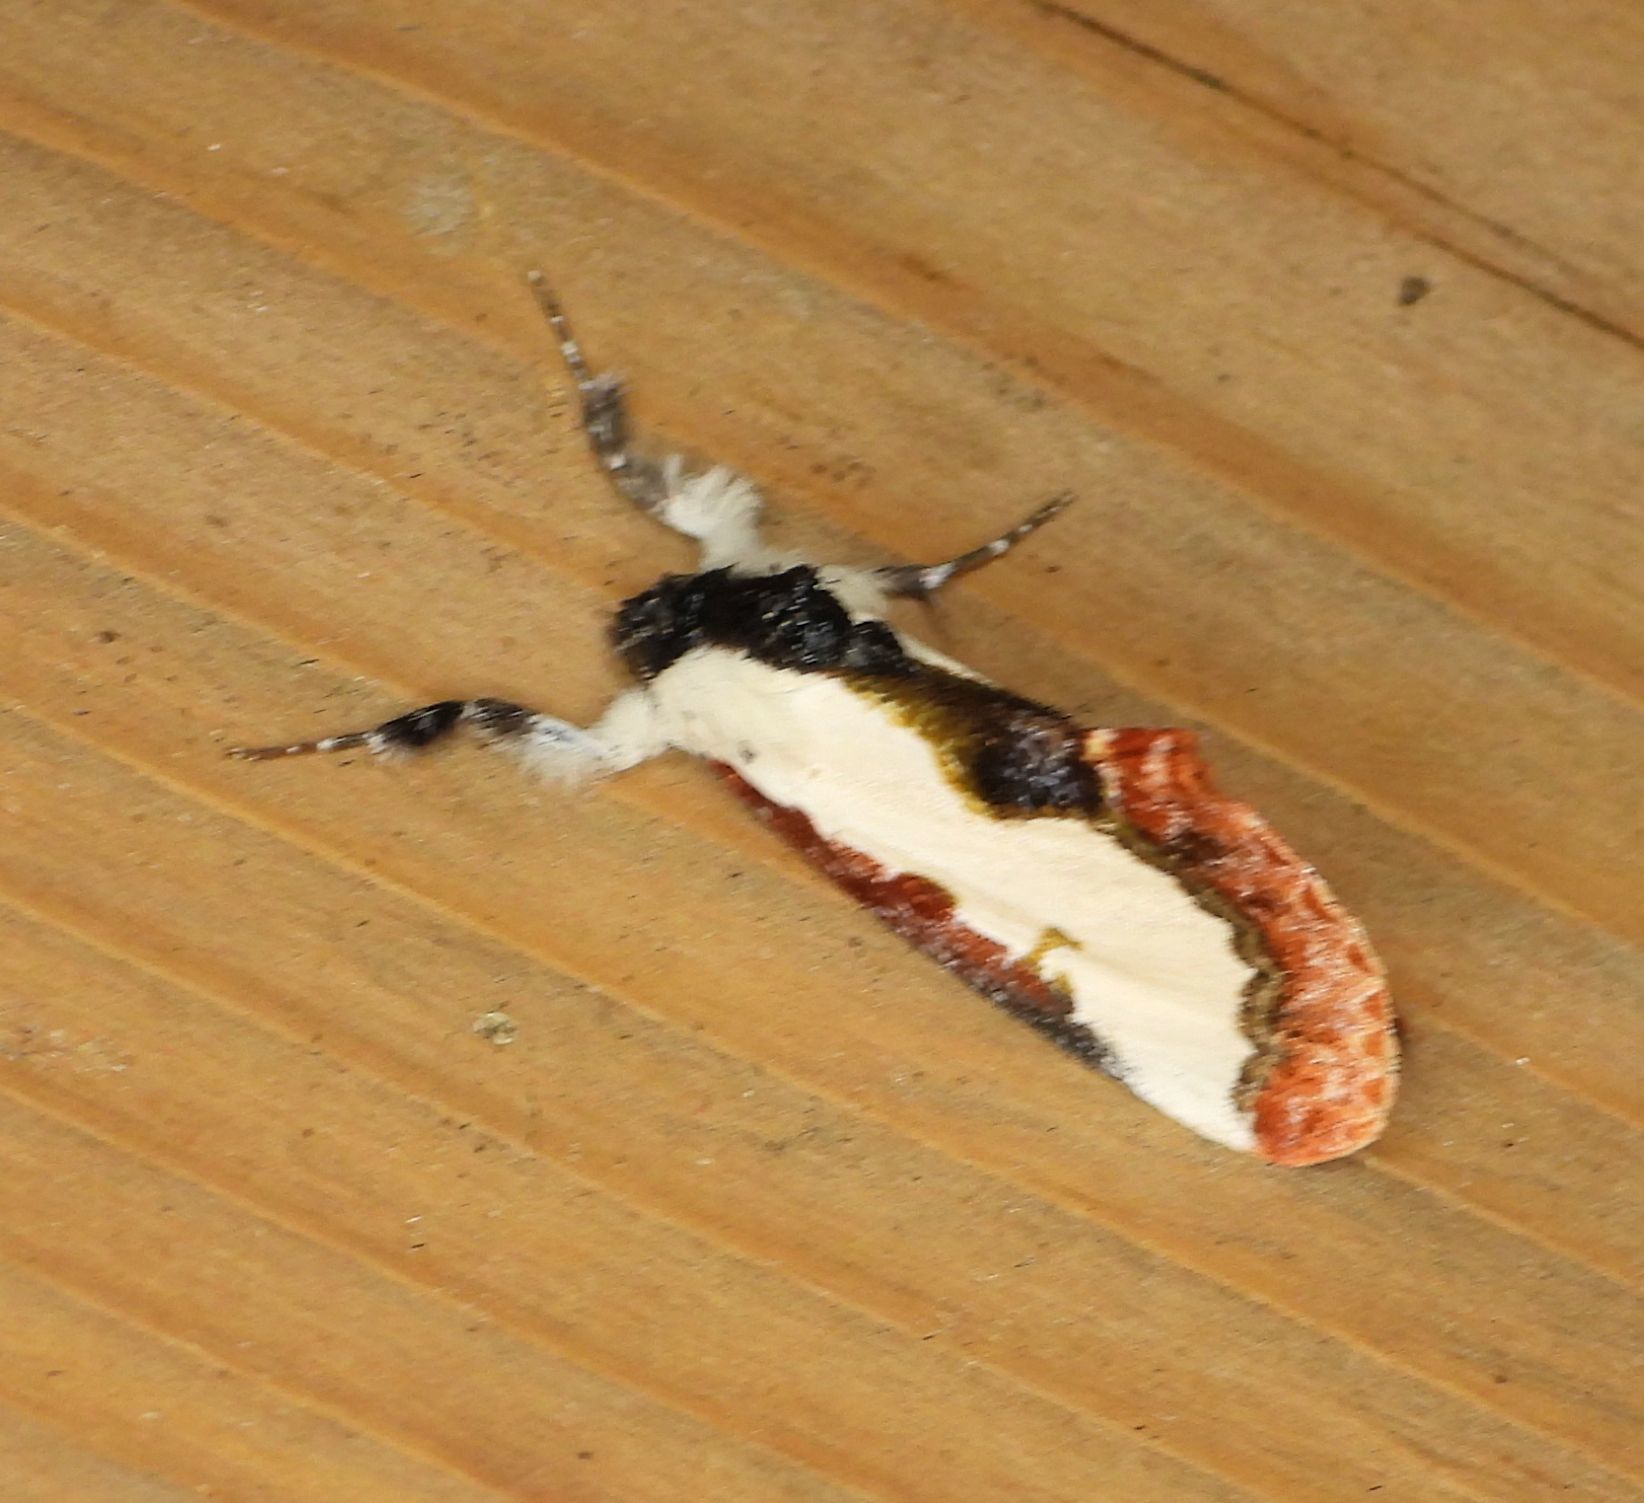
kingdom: Animalia
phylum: Arthropoda
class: Insecta
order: Lepidoptera
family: Noctuidae
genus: Eudryas
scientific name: Eudryas unio
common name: Pearly wood-nymph
